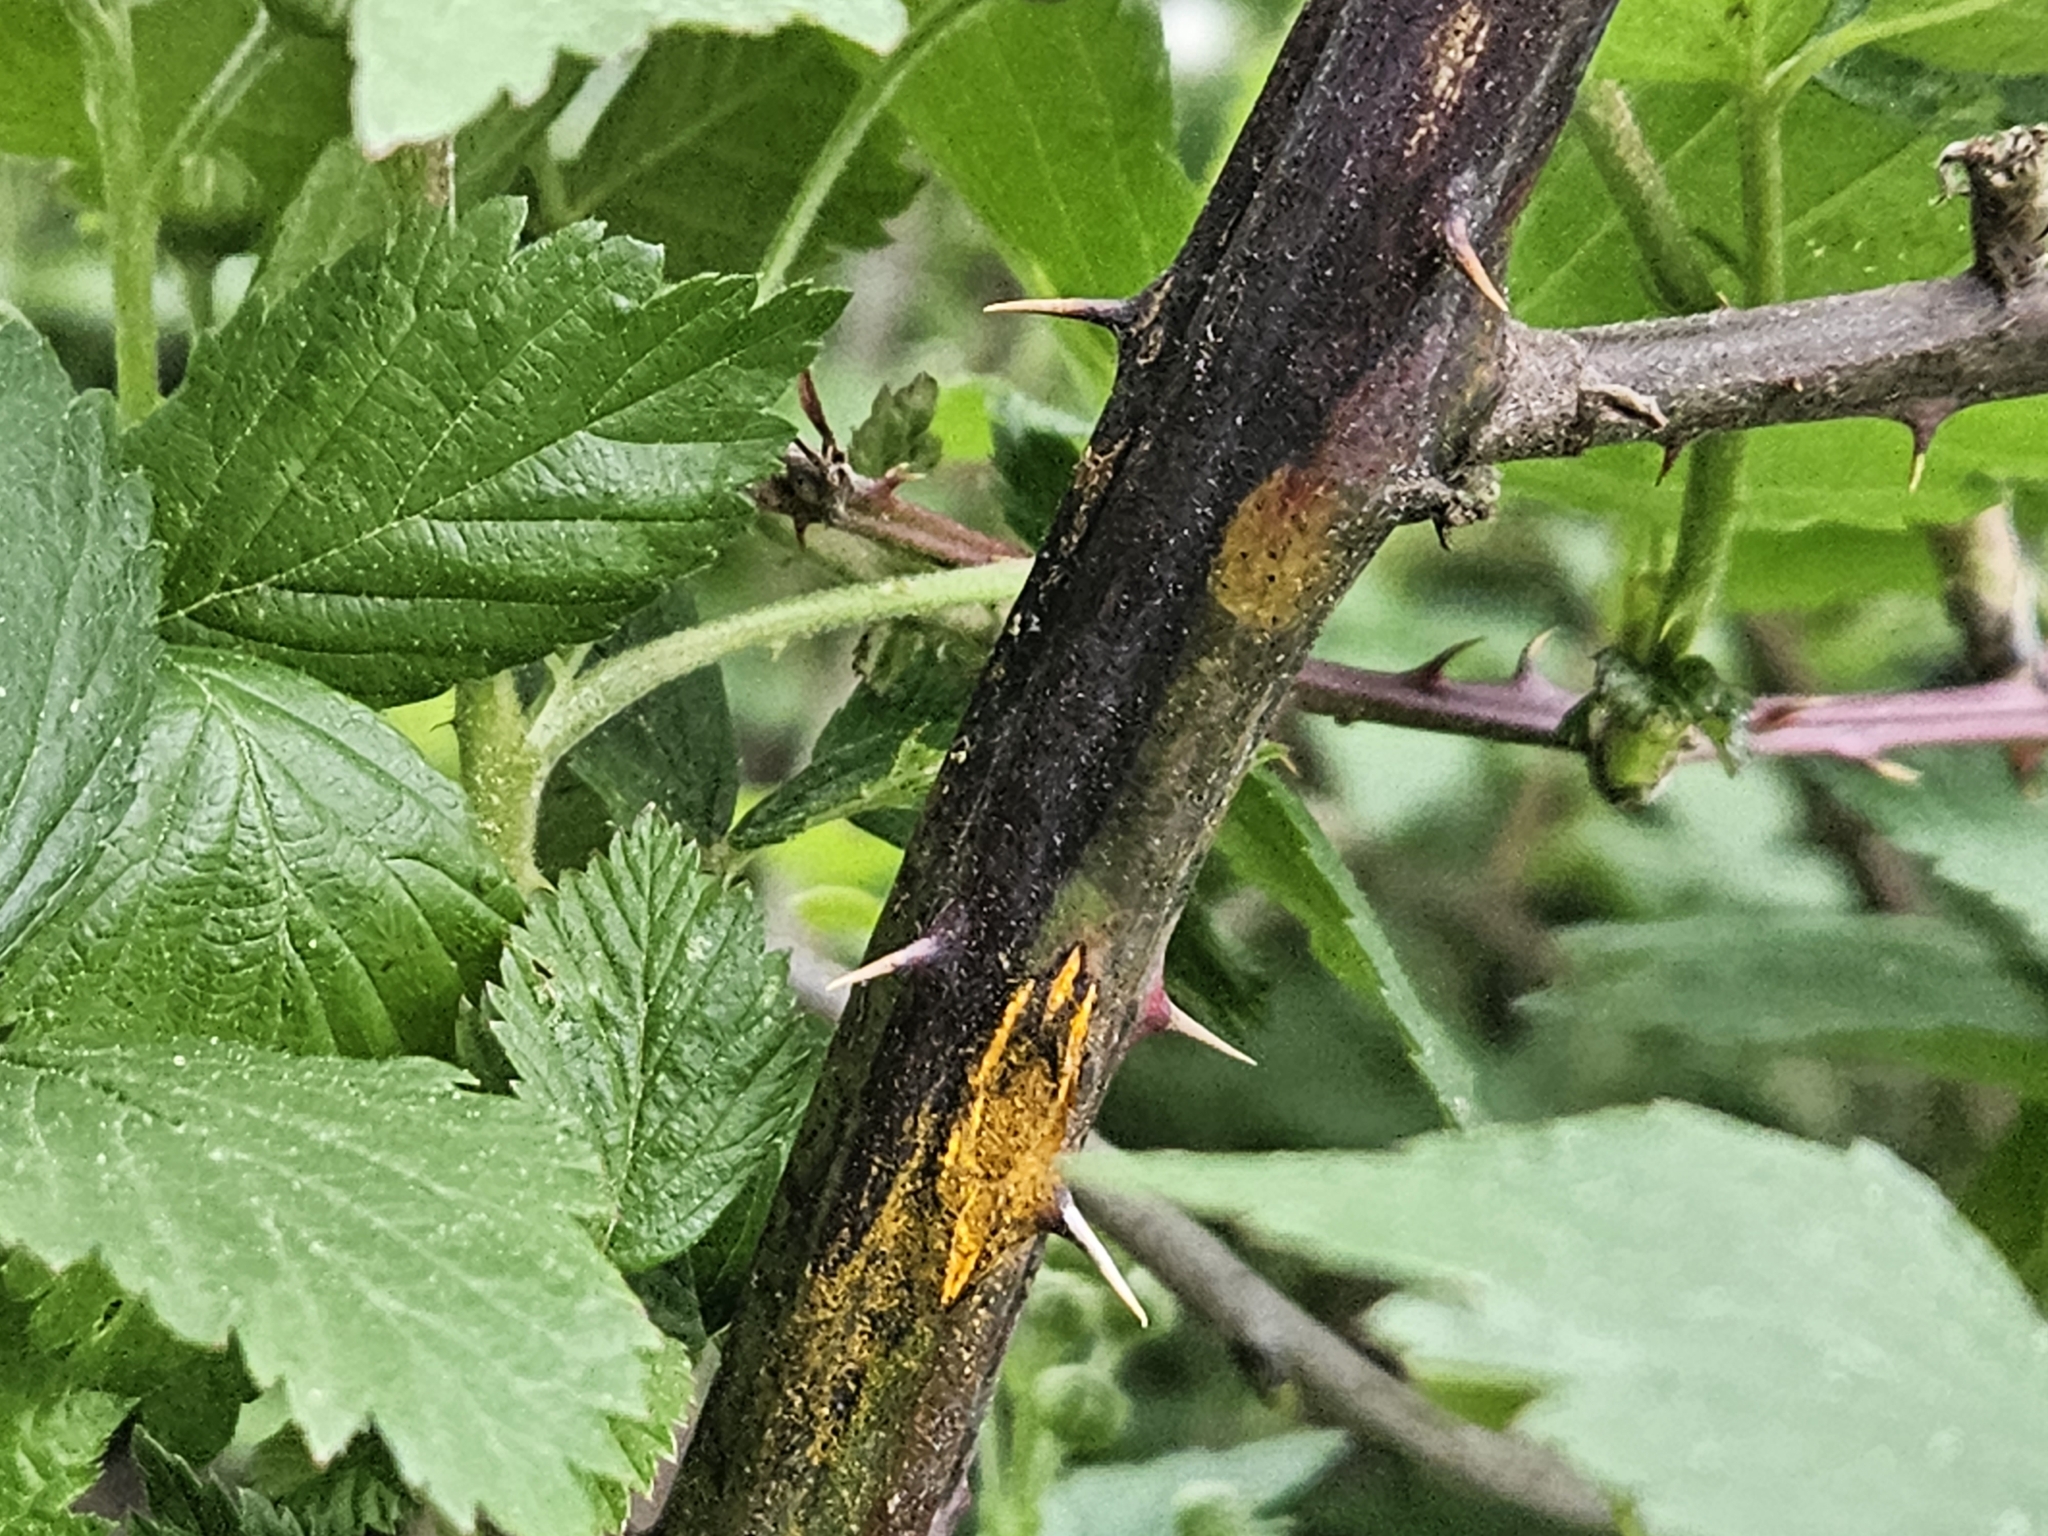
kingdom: Fungi
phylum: Basidiomycota
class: Pucciniomycetes
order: Pucciniales
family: Phragmidiaceae
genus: Kuehneola
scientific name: Kuehneola uredinis
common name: Bramble stem rust
